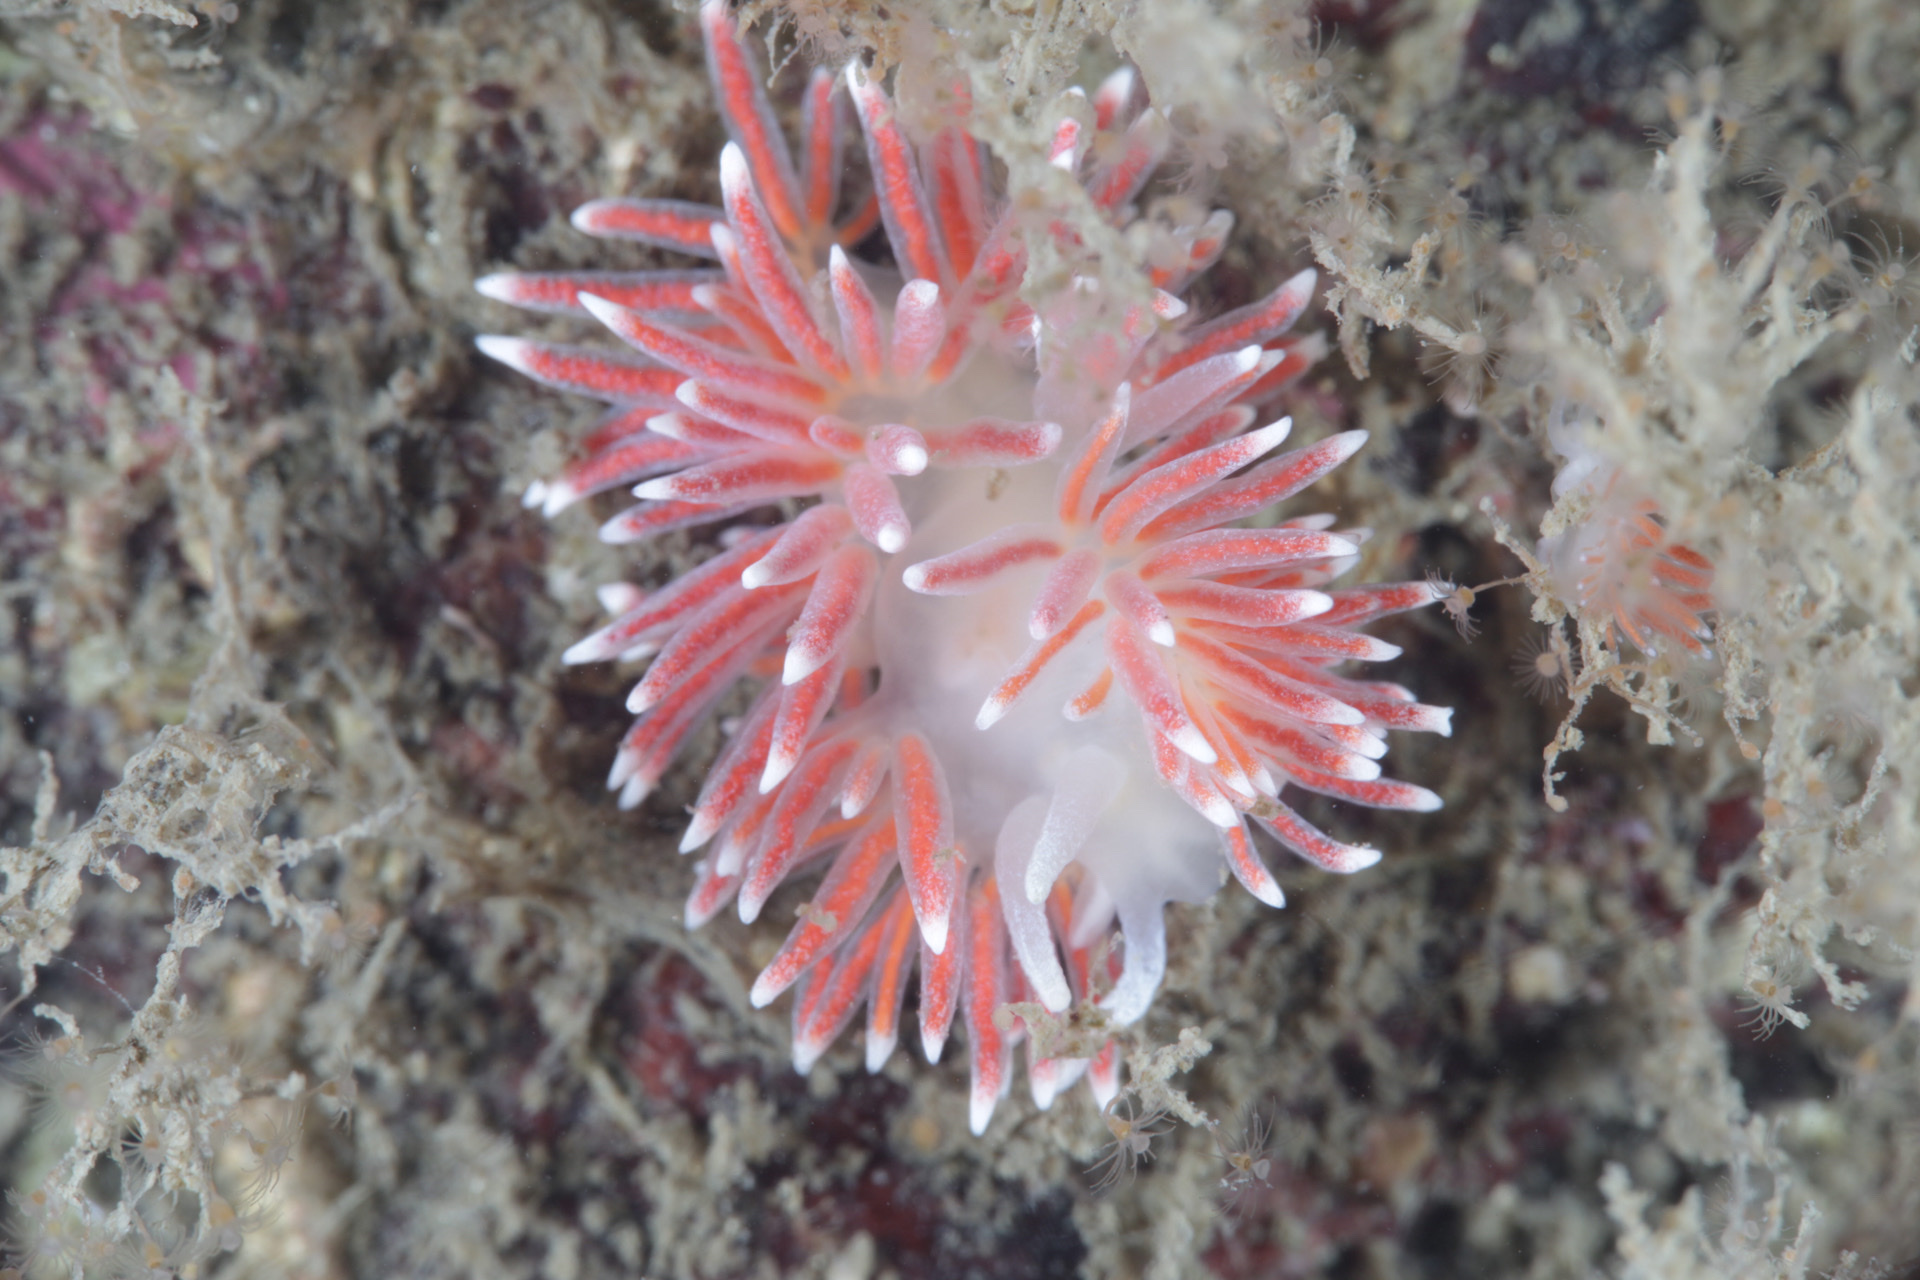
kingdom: Animalia
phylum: Mollusca
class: Gastropoda
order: Nudibranchia
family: Flabellinidae
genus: Carronella
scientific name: Carronella pellucida
